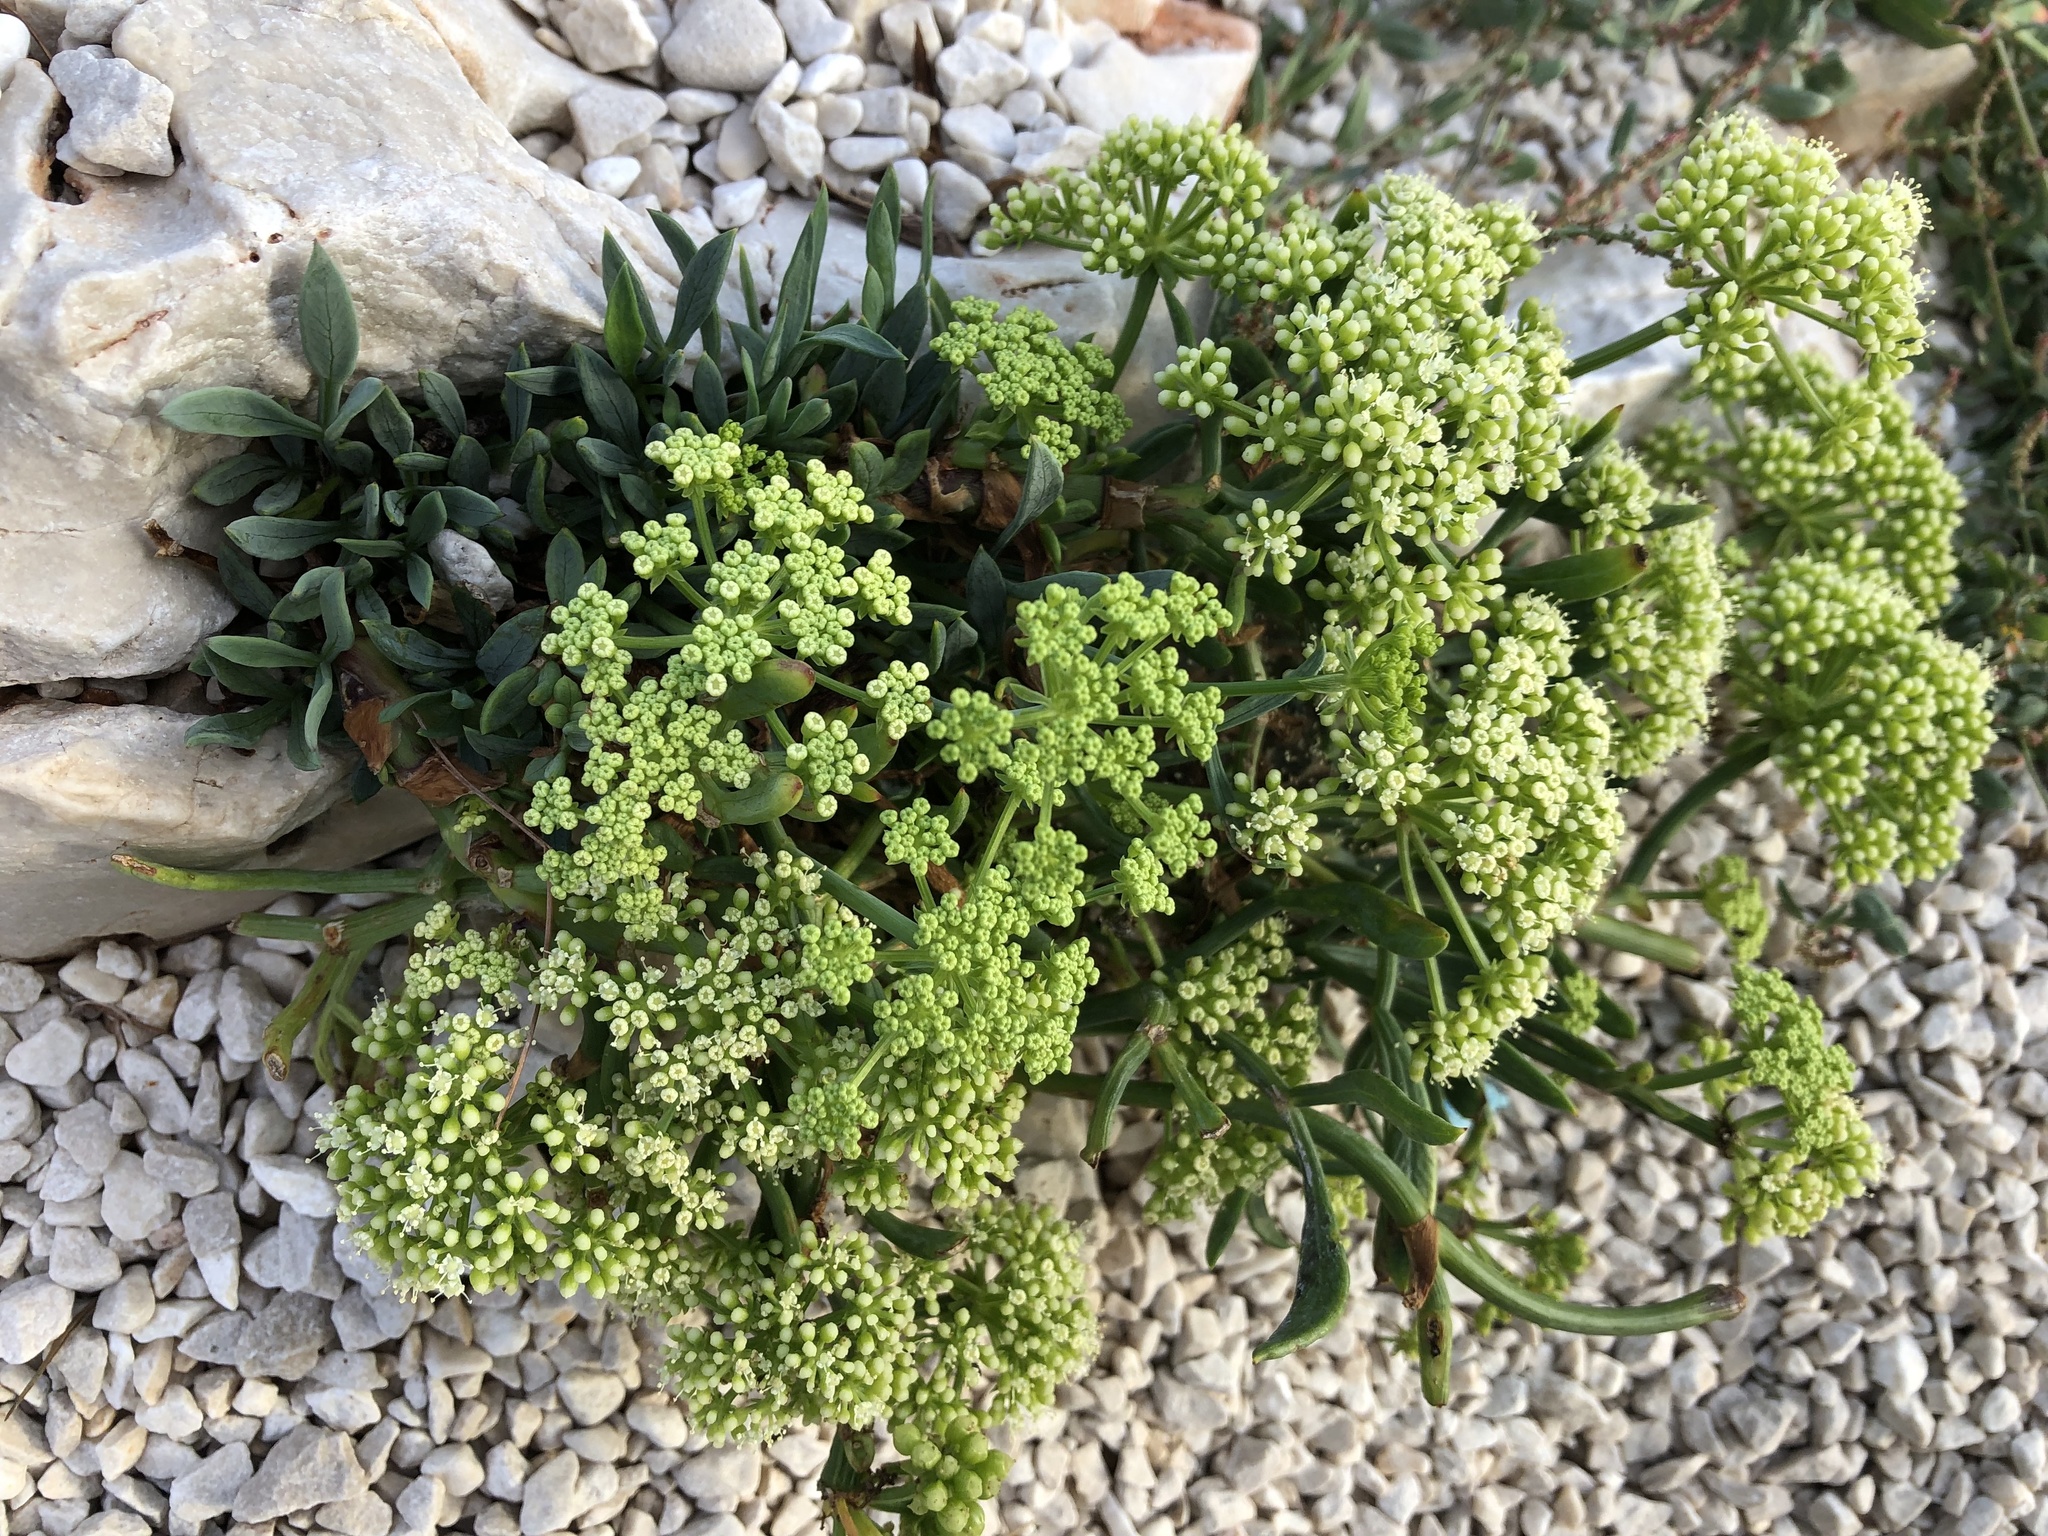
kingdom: Plantae
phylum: Tracheophyta
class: Magnoliopsida
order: Apiales
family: Apiaceae
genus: Crithmum
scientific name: Crithmum maritimum
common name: Rock samphire
